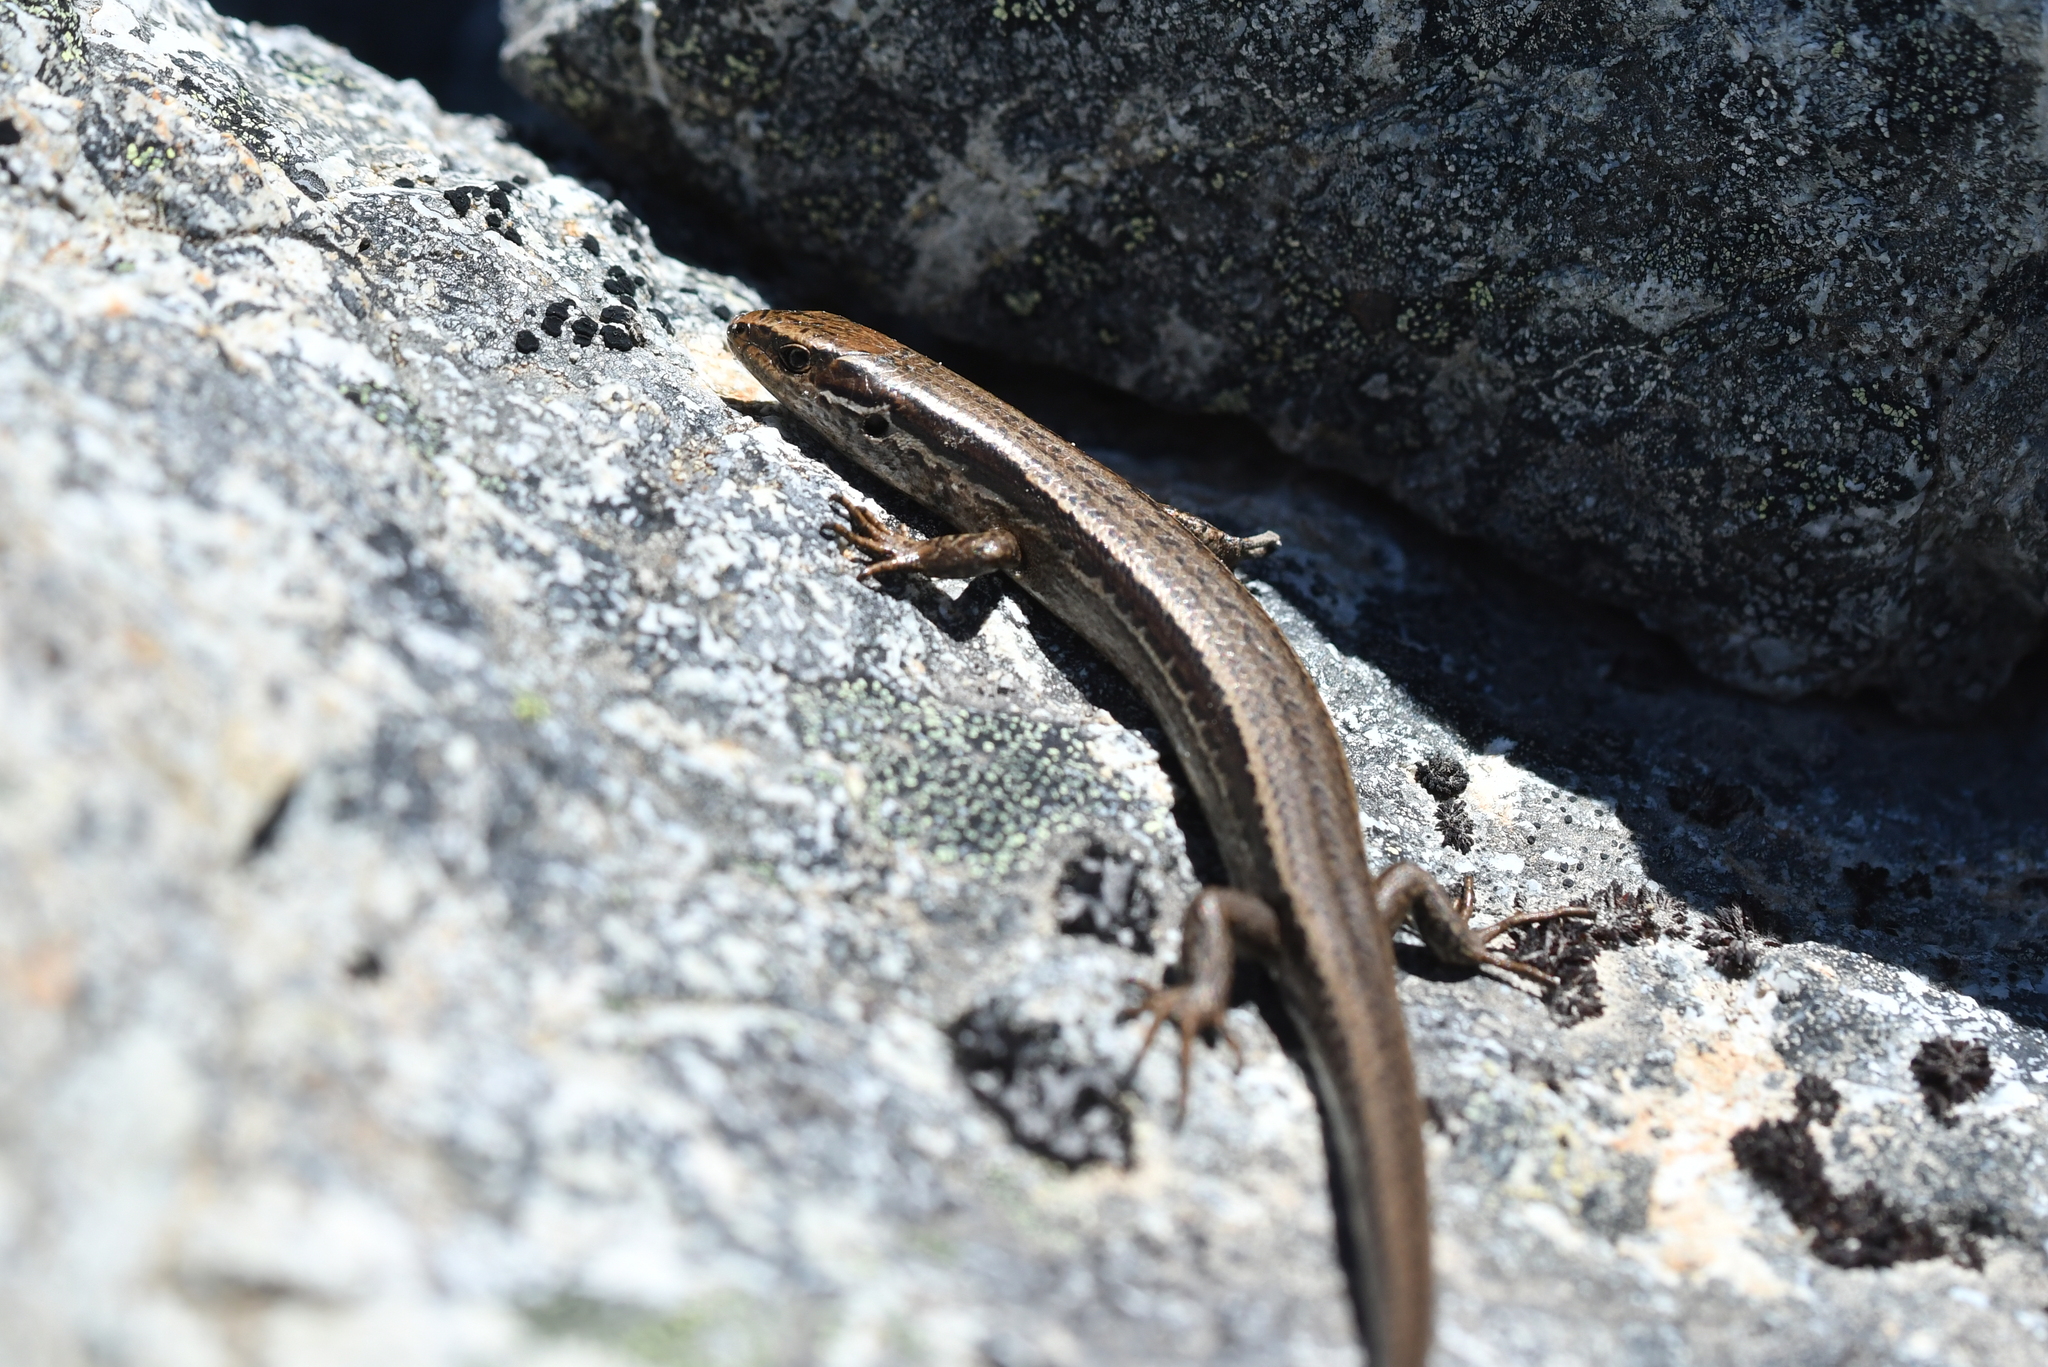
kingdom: Animalia
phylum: Chordata
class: Squamata
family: Scincidae
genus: Oligosoma
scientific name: Oligosoma polychroma
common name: Common new zealand skink
